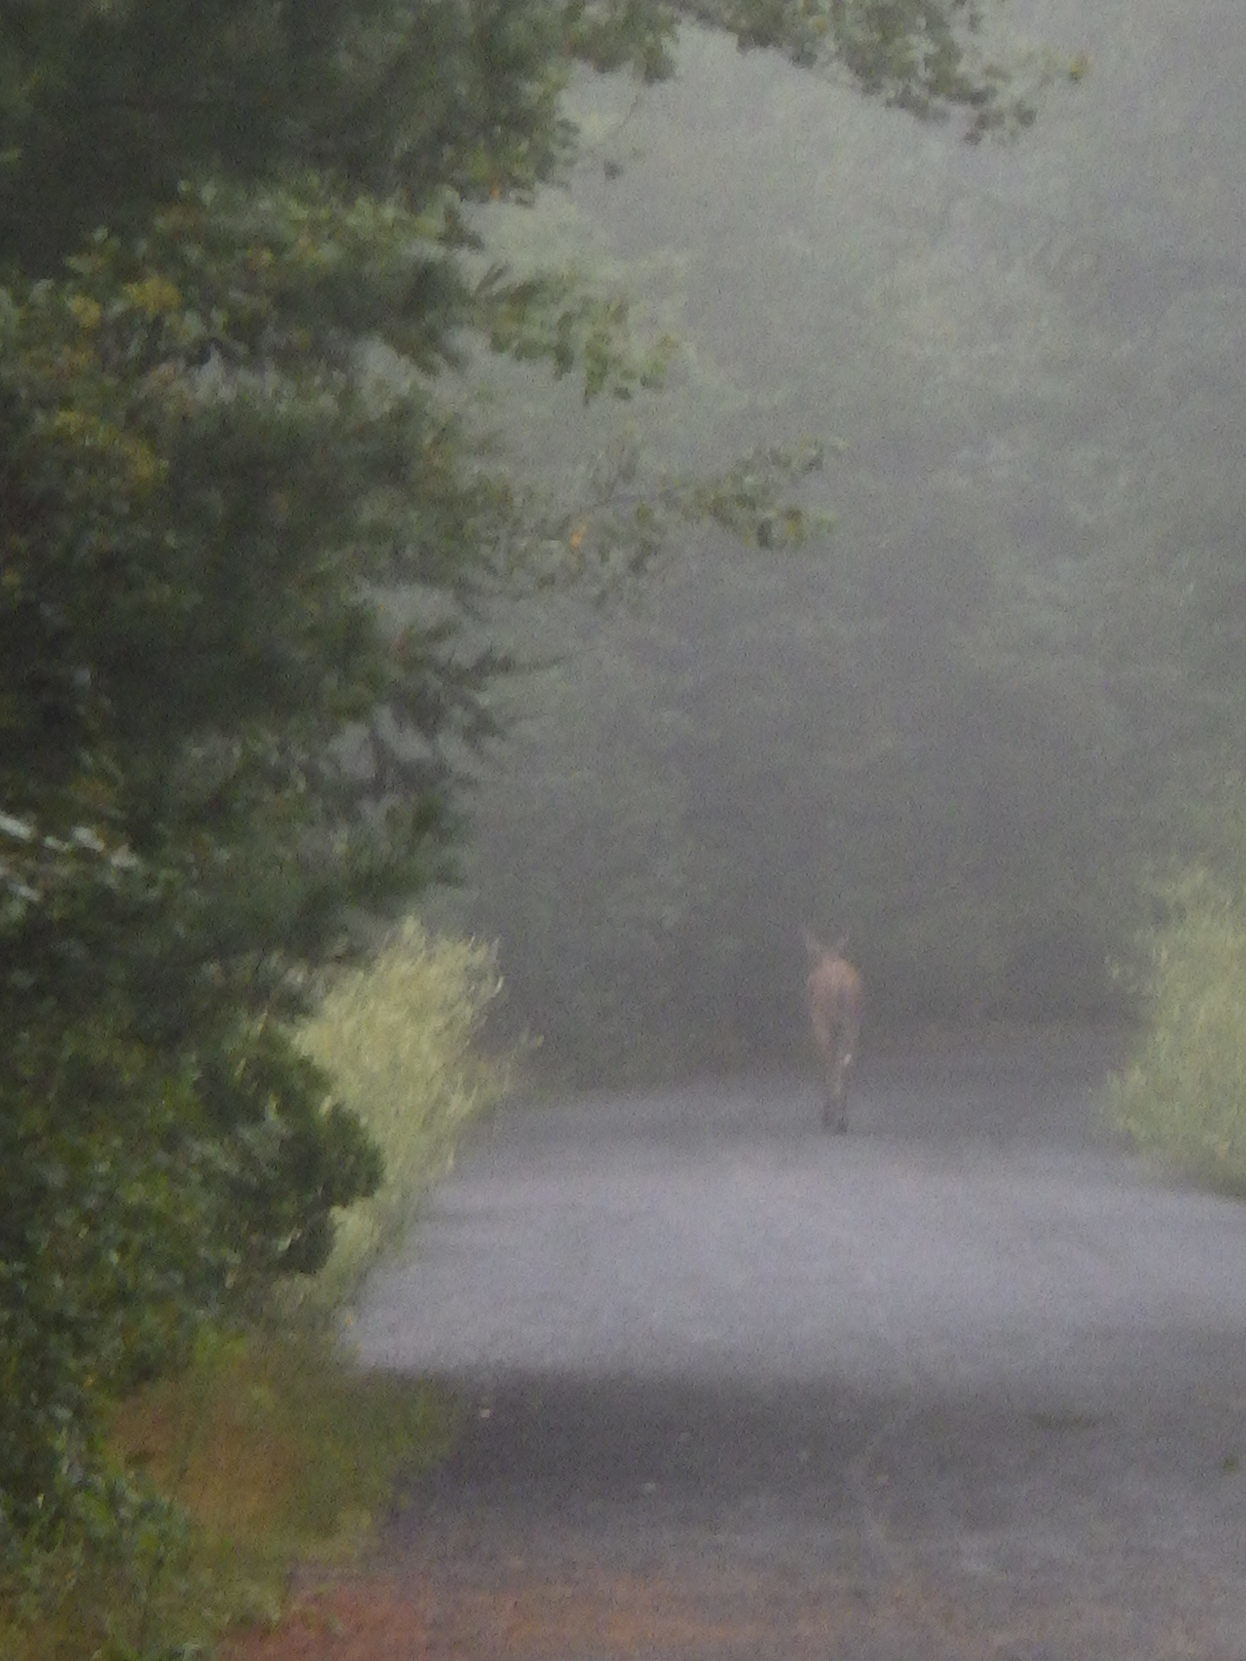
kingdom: Animalia
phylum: Chordata
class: Mammalia
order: Artiodactyla
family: Cervidae
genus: Odocoileus
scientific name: Odocoileus virginianus
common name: White-tailed deer
